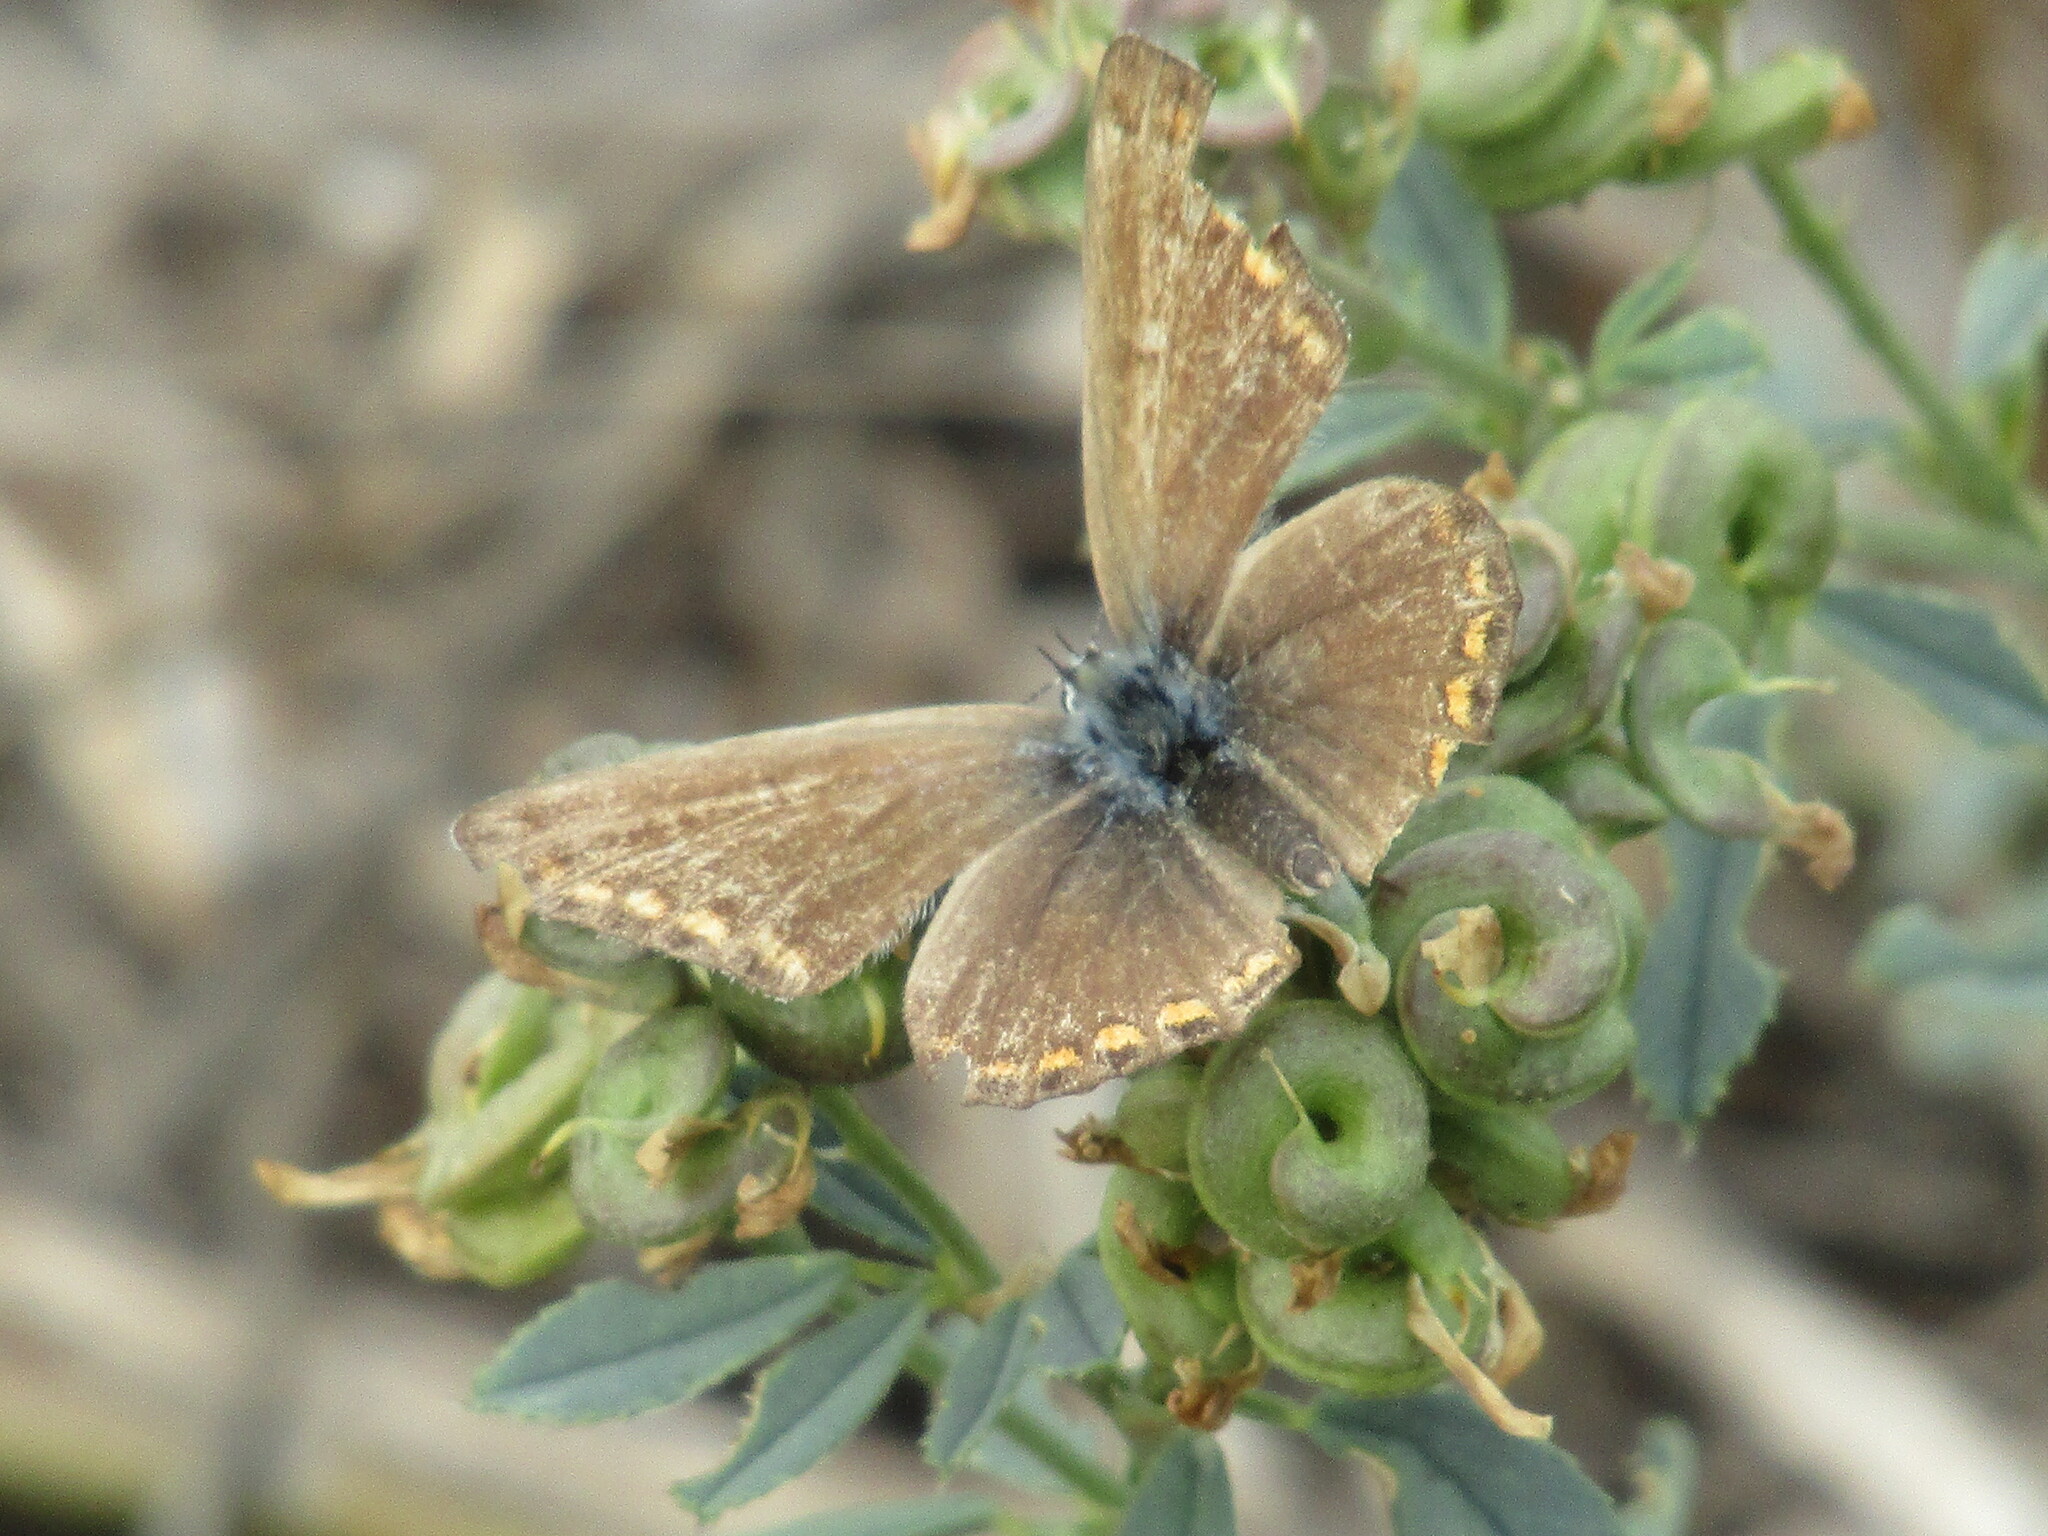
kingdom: Animalia
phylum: Arthropoda
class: Insecta
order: Lepidoptera
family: Lycaenidae
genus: Polyommatus
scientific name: Polyommatus icarus
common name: Common blue
